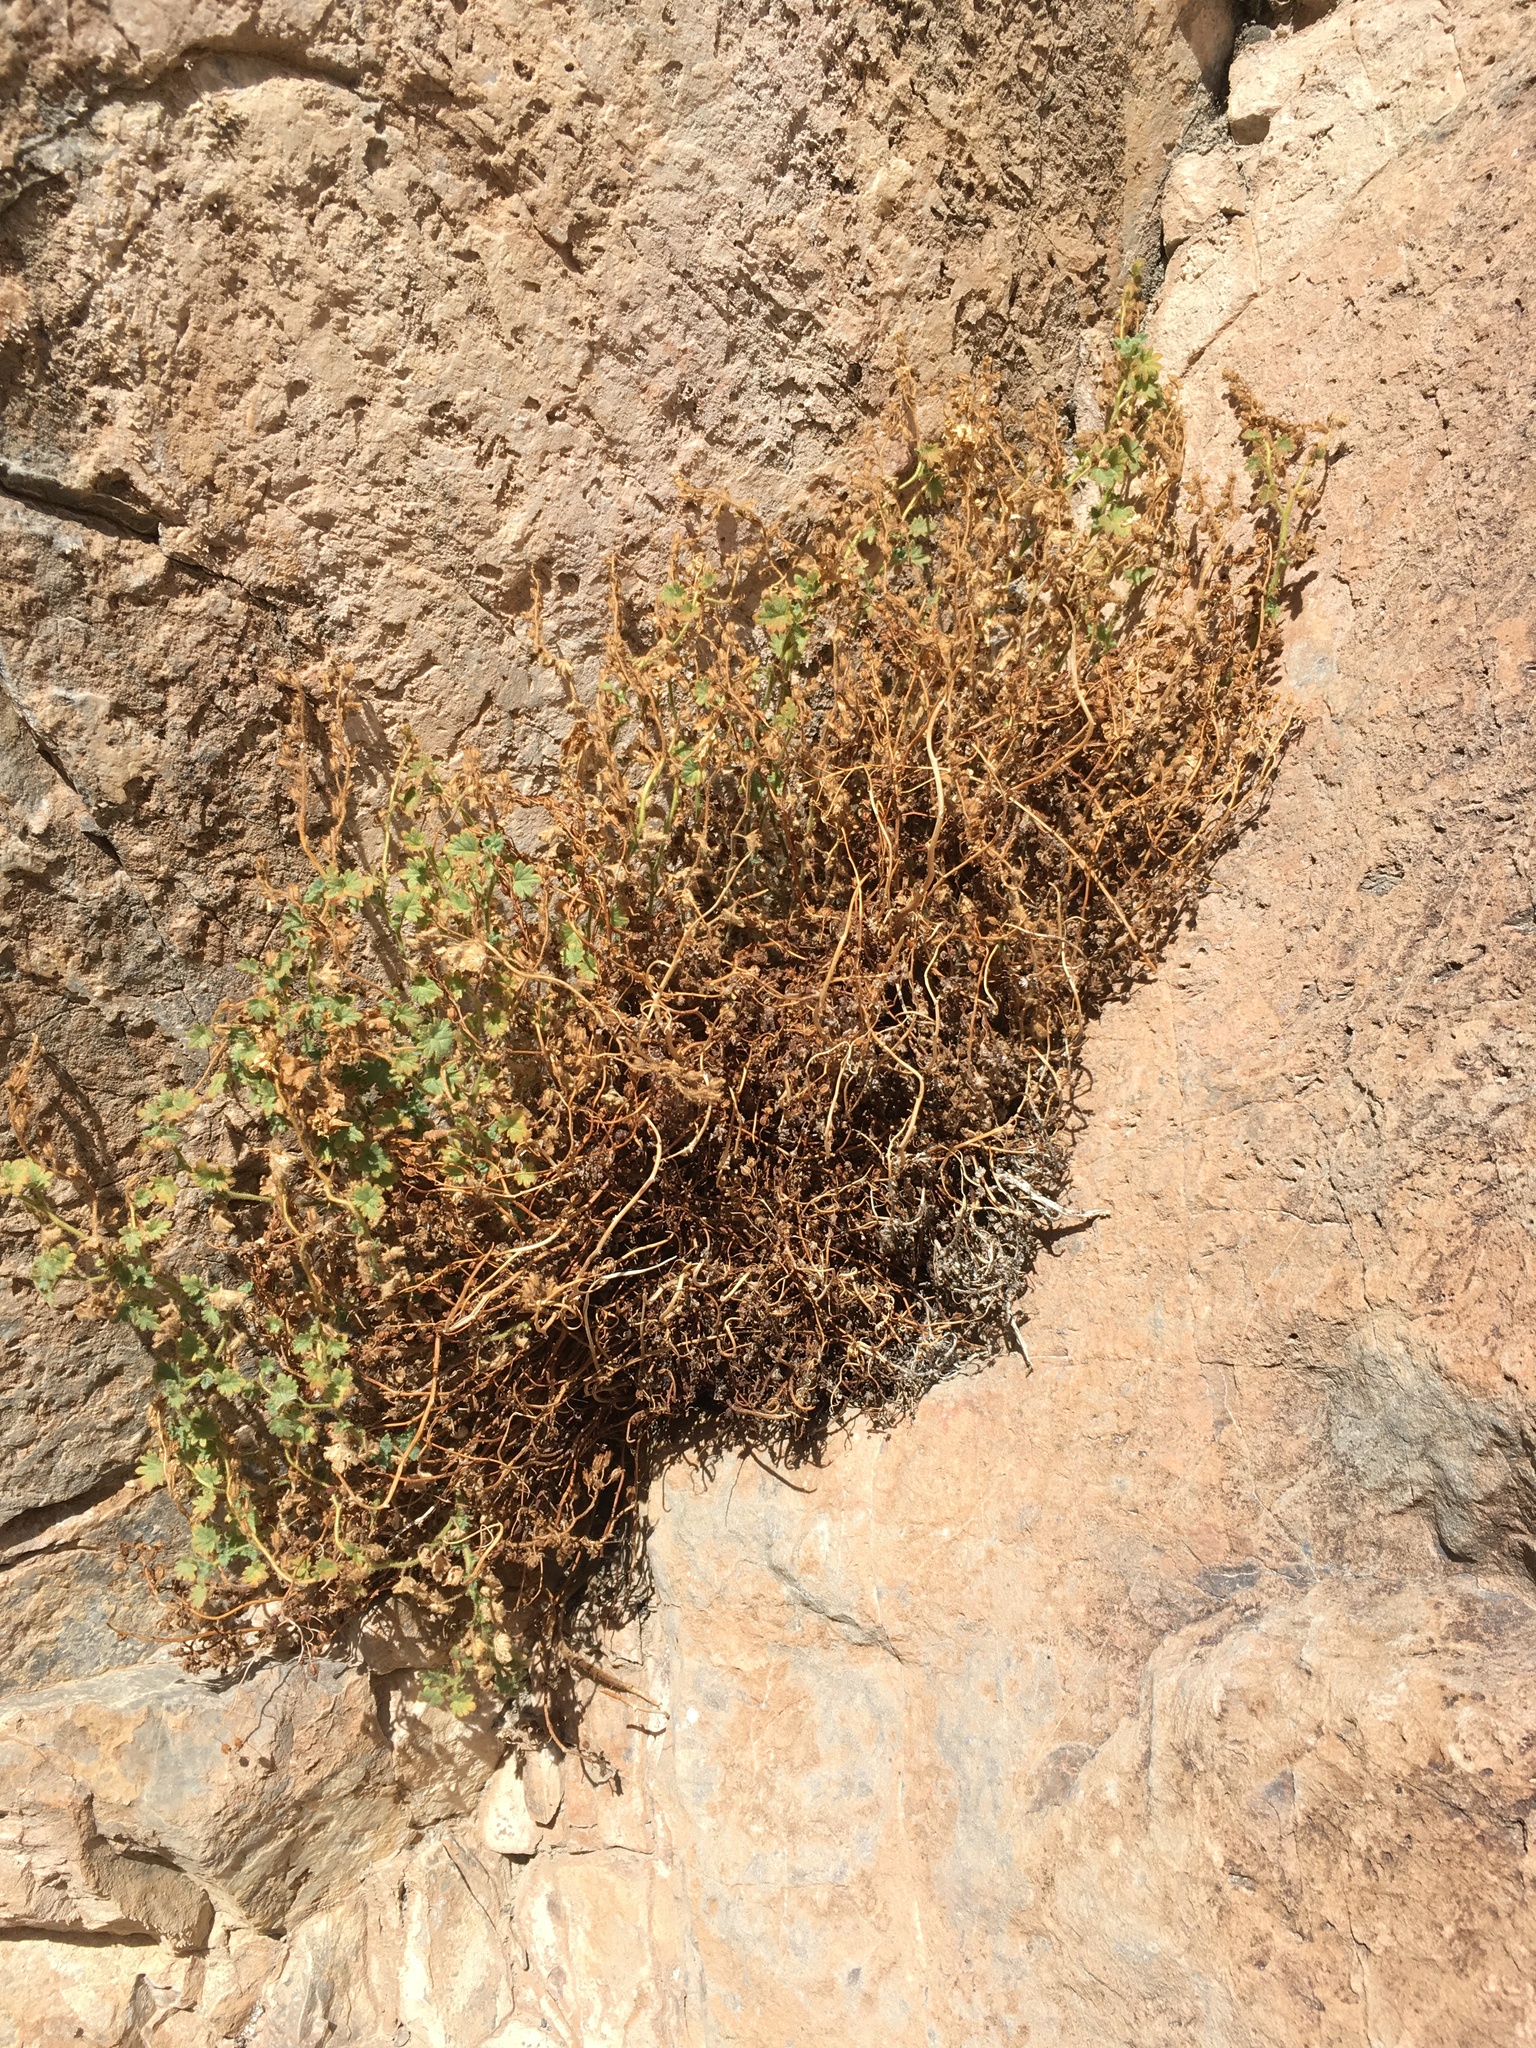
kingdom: Plantae
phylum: Tracheophyta
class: Magnoliopsida
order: Boraginales
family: Hydrophyllaceae
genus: Phacelia
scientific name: Phacelia perityloides
